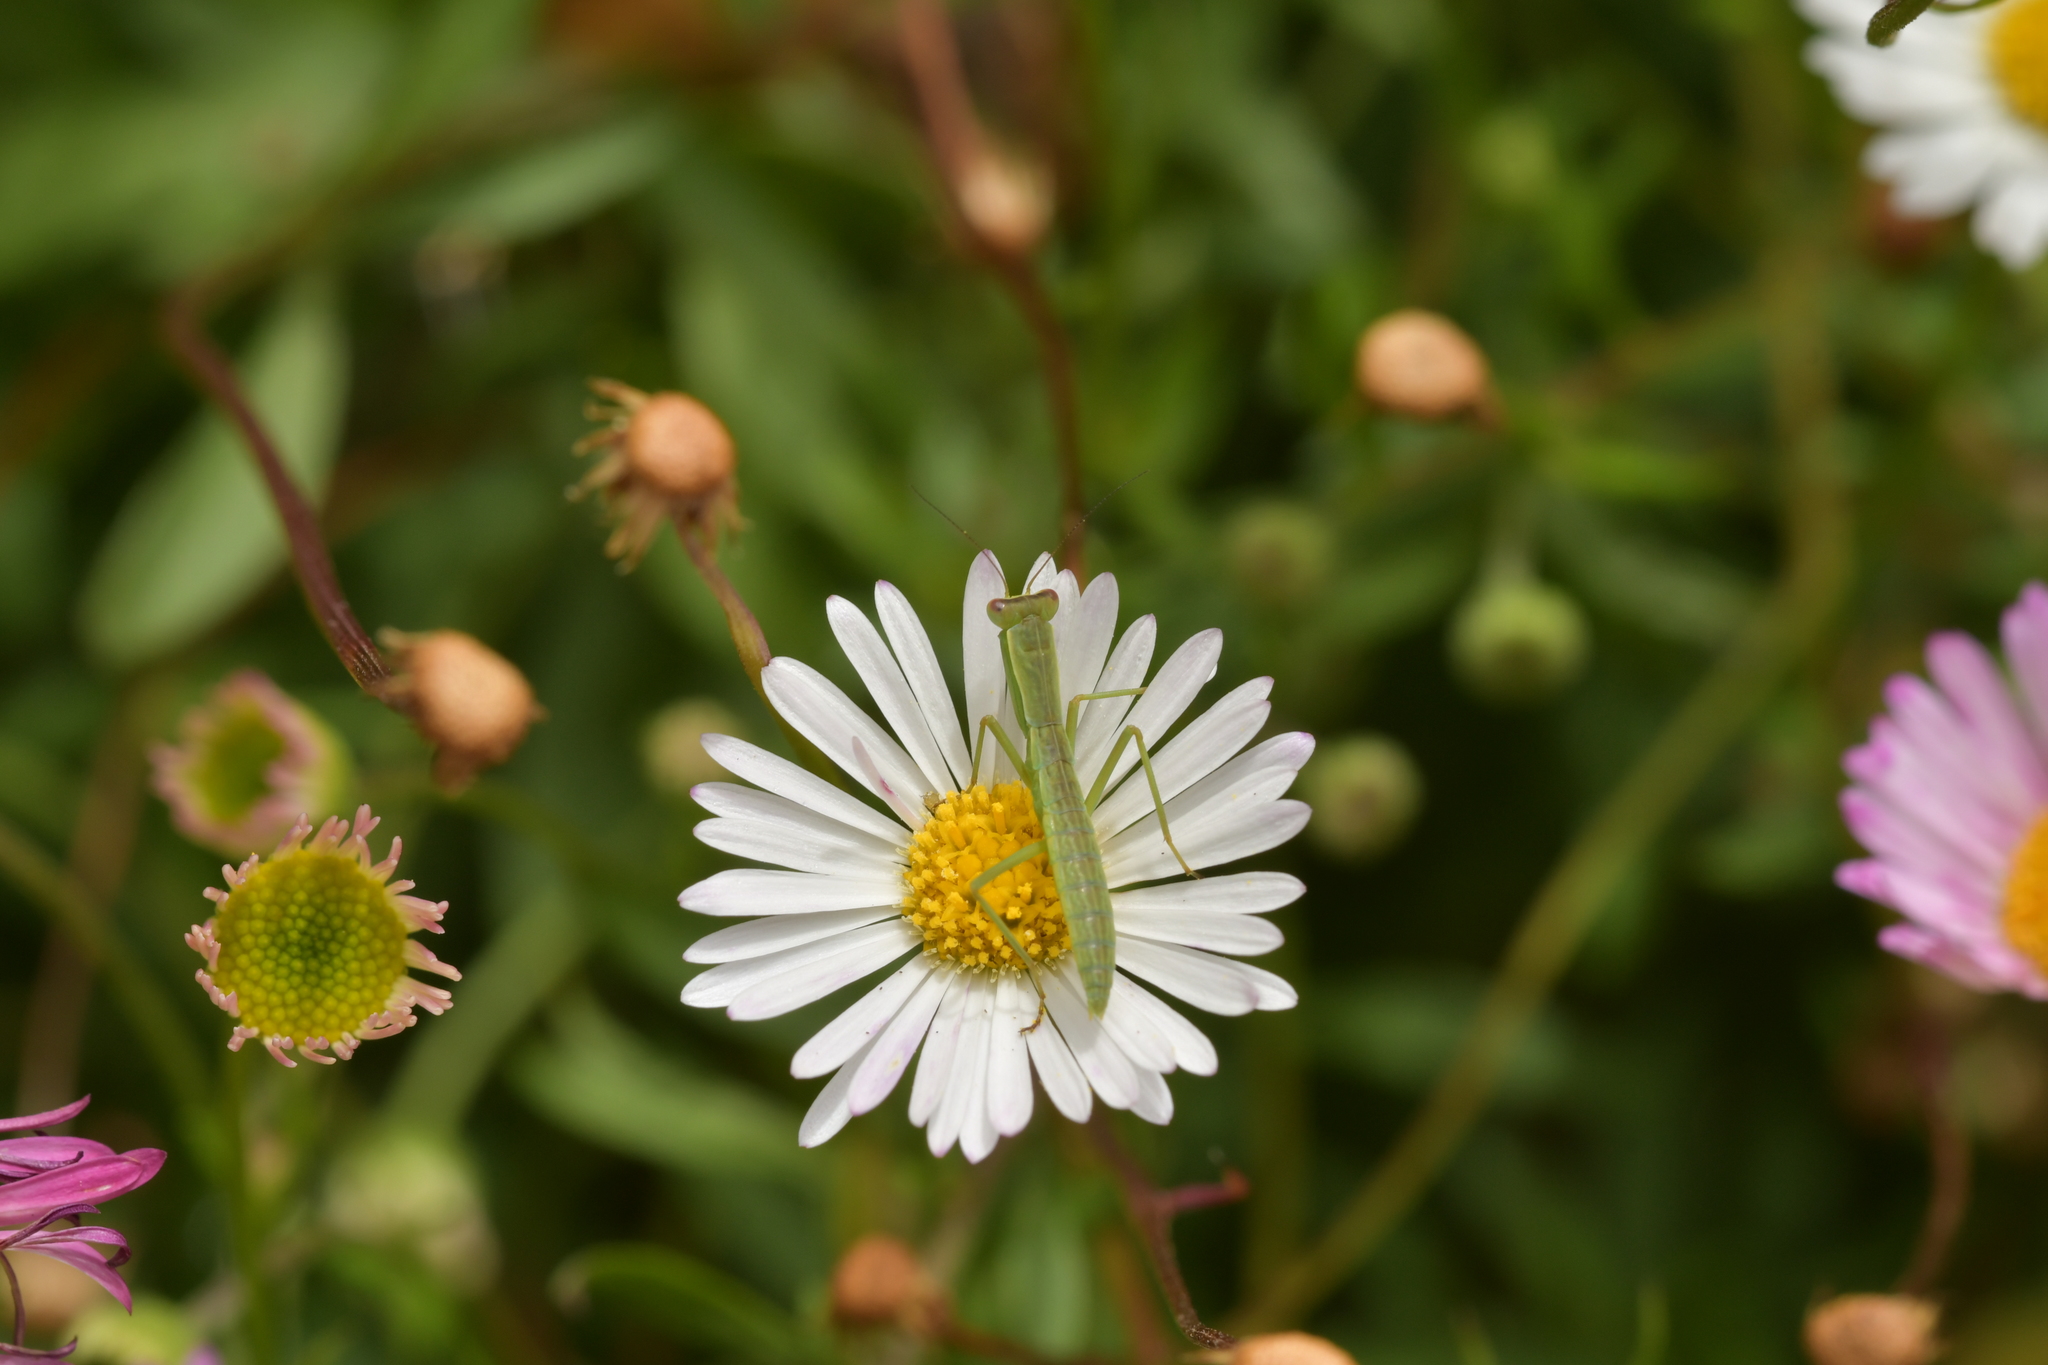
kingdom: Animalia
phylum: Arthropoda
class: Insecta
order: Mantodea
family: Mantidae
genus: Orthodera
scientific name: Orthodera novaezealandiae
